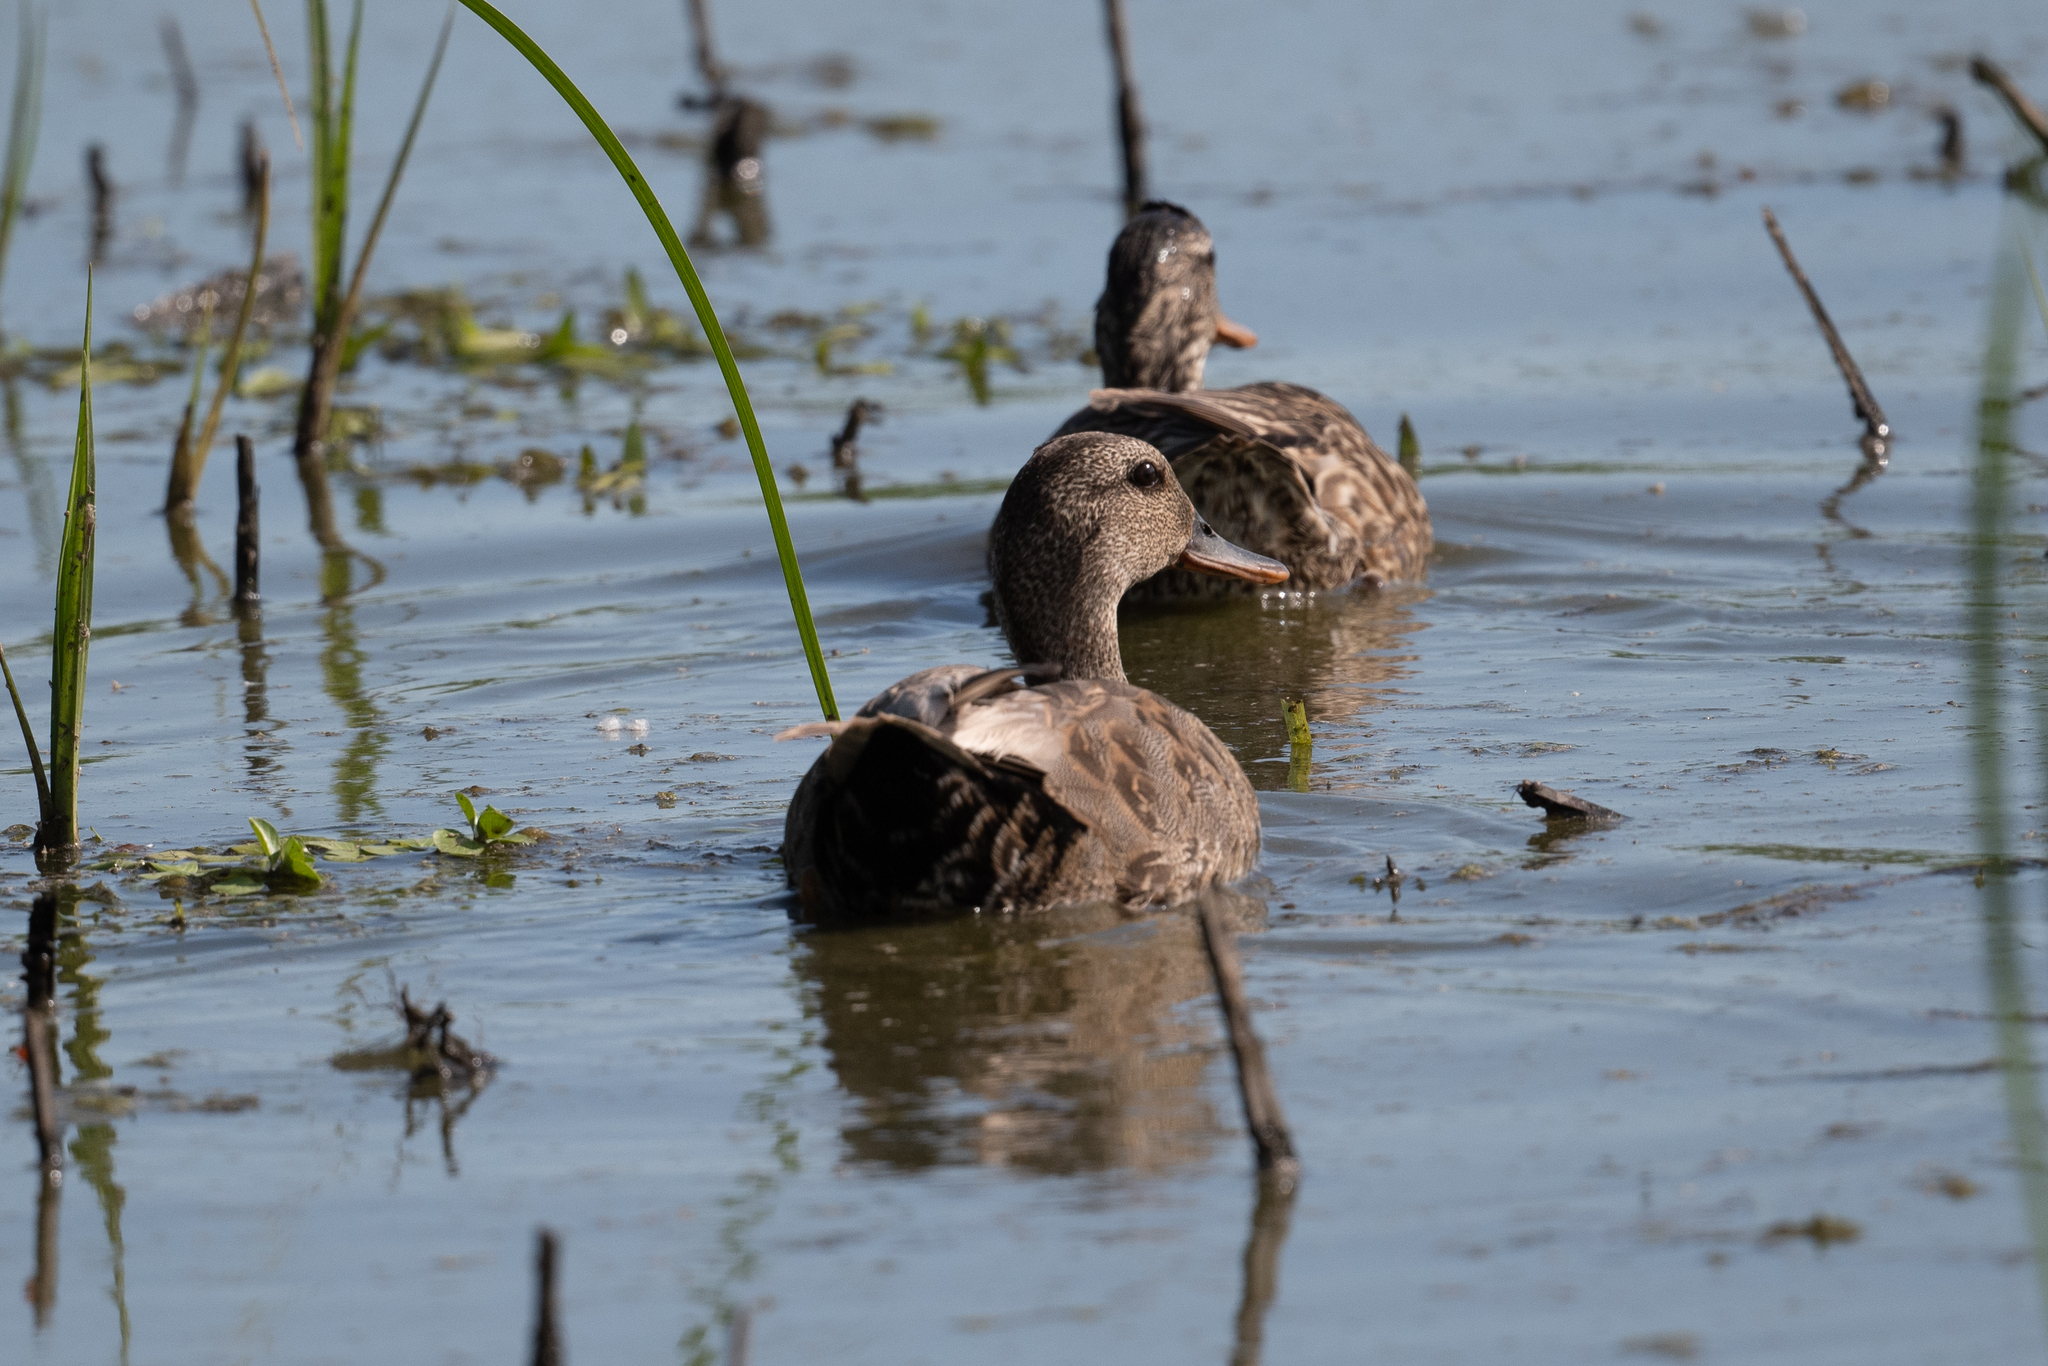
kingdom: Animalia
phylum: Chordata
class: Aves
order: Anseriformes
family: Anatidae
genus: Mareca
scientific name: Mareca strepera
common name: Gadwall
